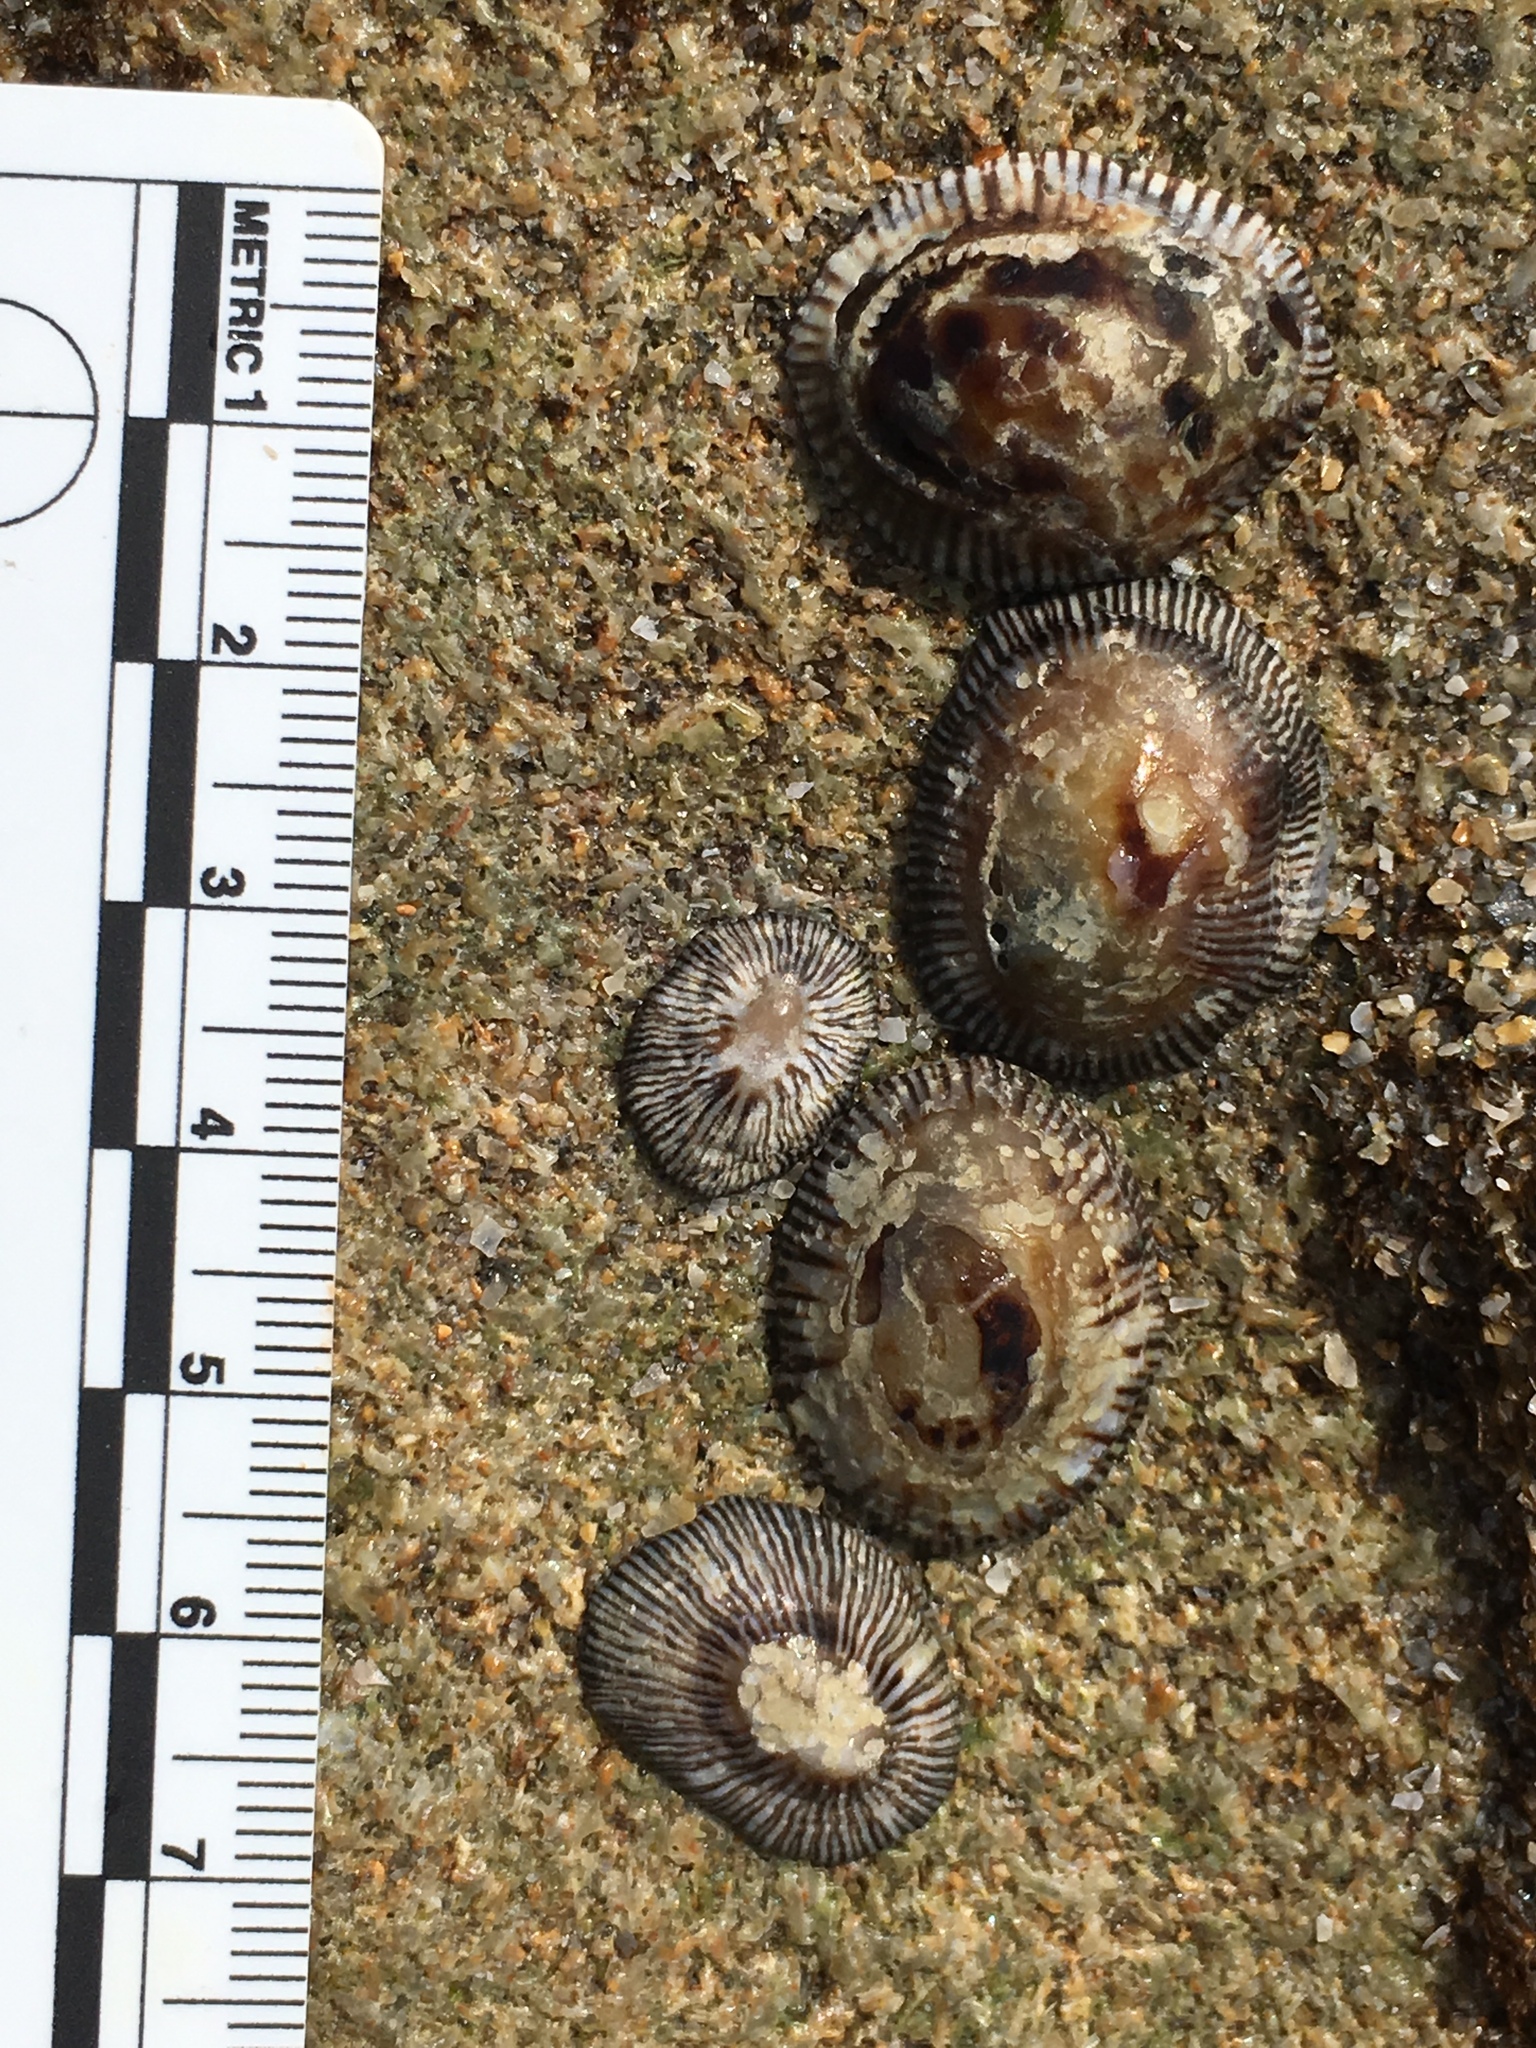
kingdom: Animalia
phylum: Mollusca
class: Gastropoda
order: Siphonariida
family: Siphonariidae
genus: Siphonaria
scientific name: Siphonaria naufragum
